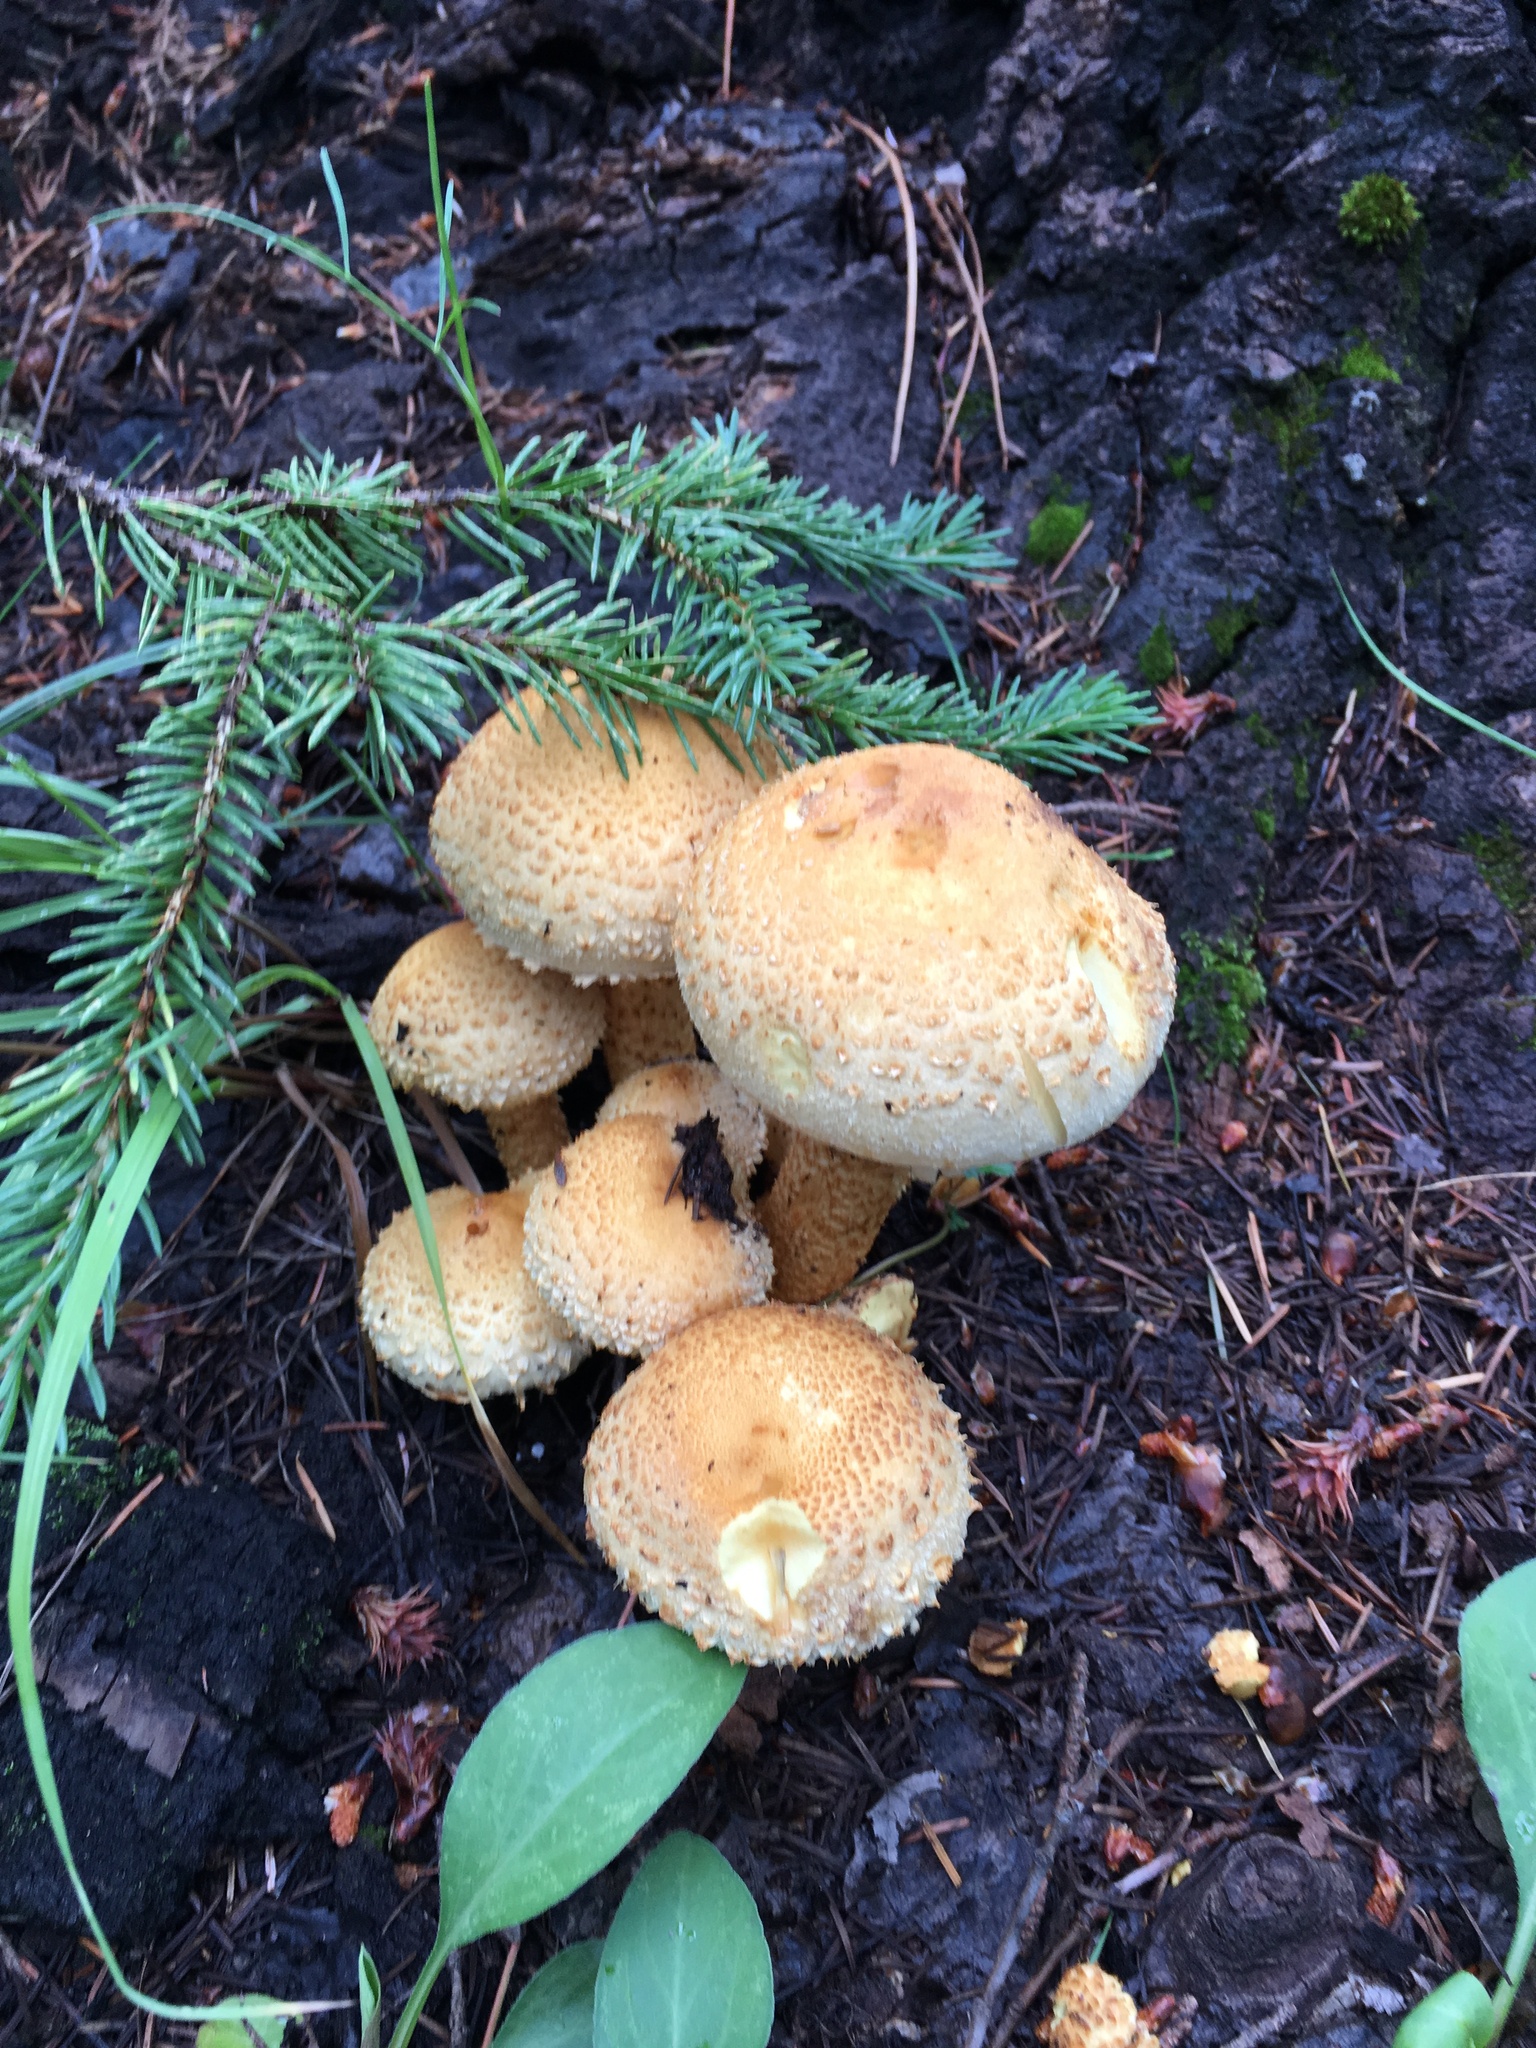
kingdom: Fungi
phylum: Basidiomycota
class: Agaricomycetes
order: Agaricales
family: Strophariaceae
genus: Pholiota
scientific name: Pholiota squarrosa
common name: Shaggy pholiota
